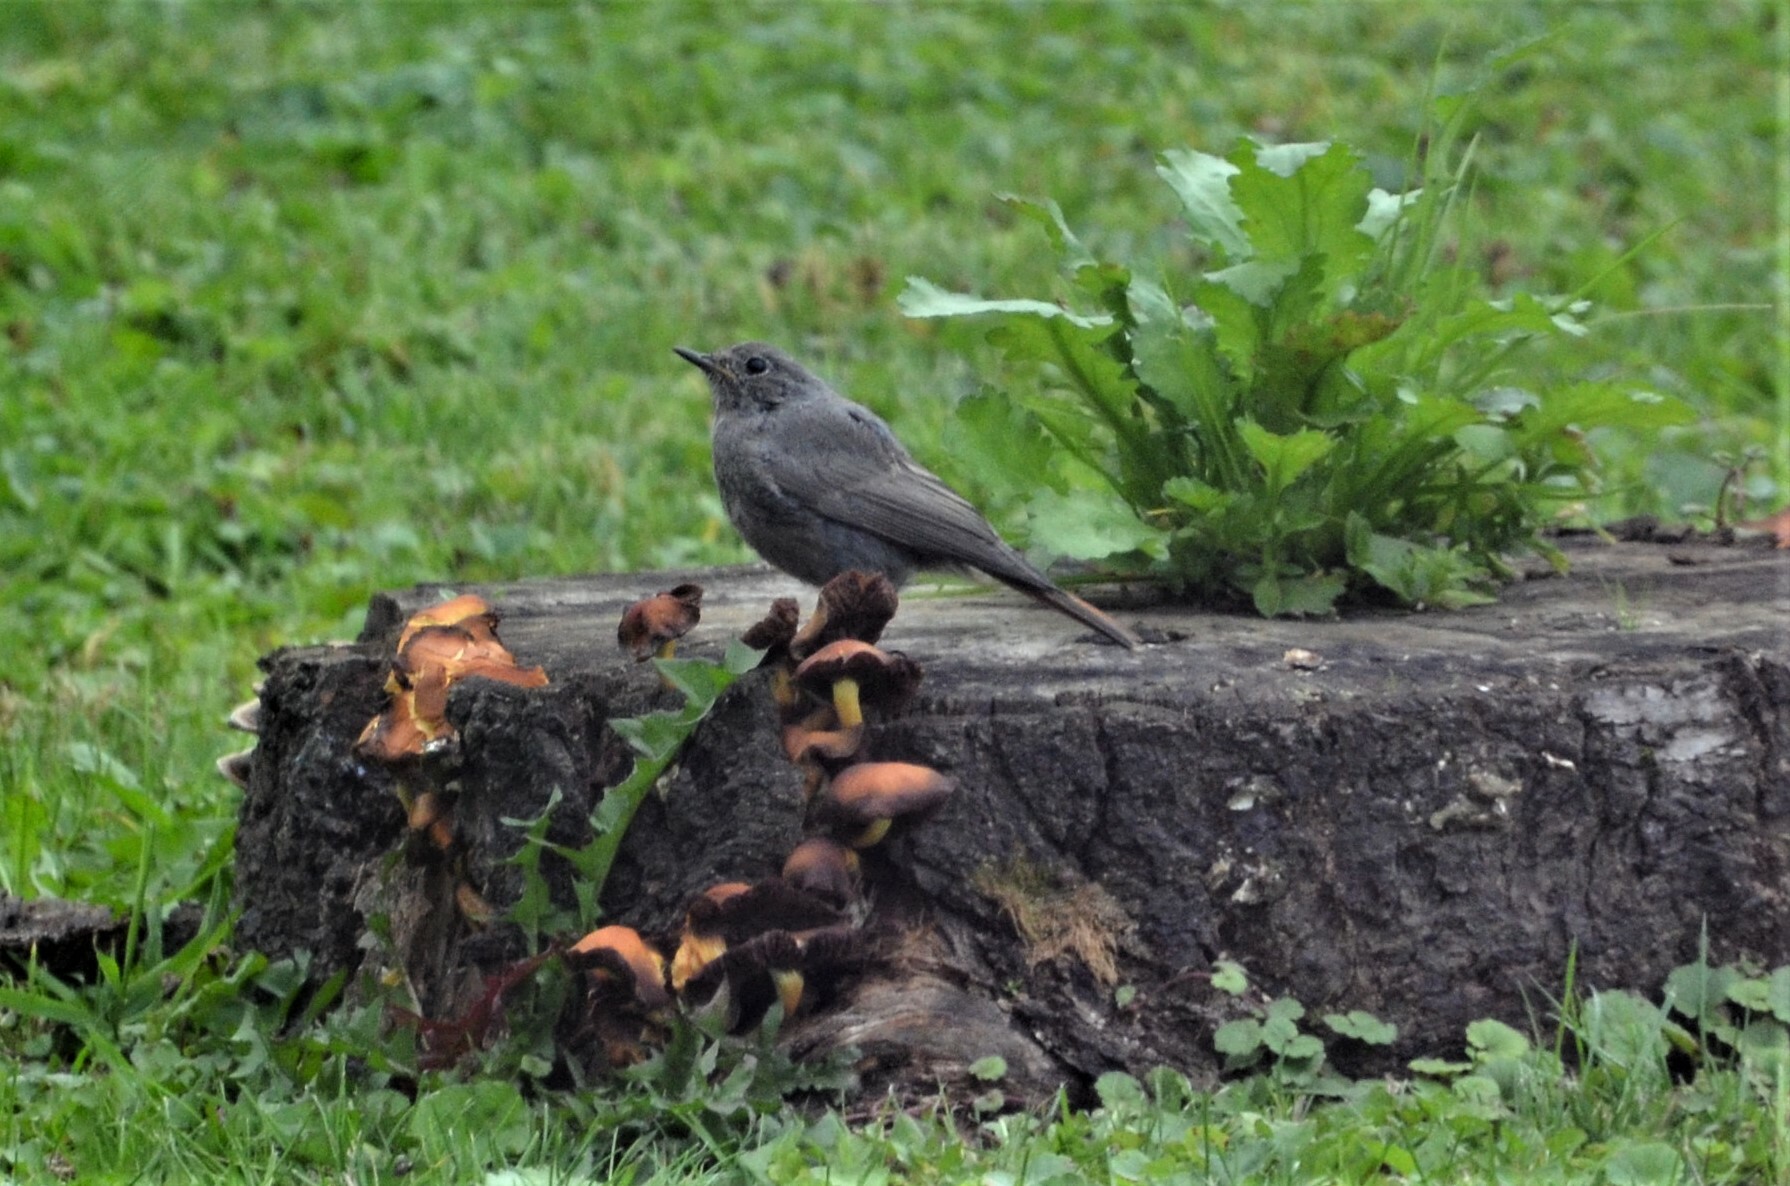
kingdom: Animalia
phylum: Chordata
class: Aves
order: Passeriformes
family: Muscicapidae
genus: Phoenicurus
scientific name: Phoenicurus ochruros
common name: Black redstart
